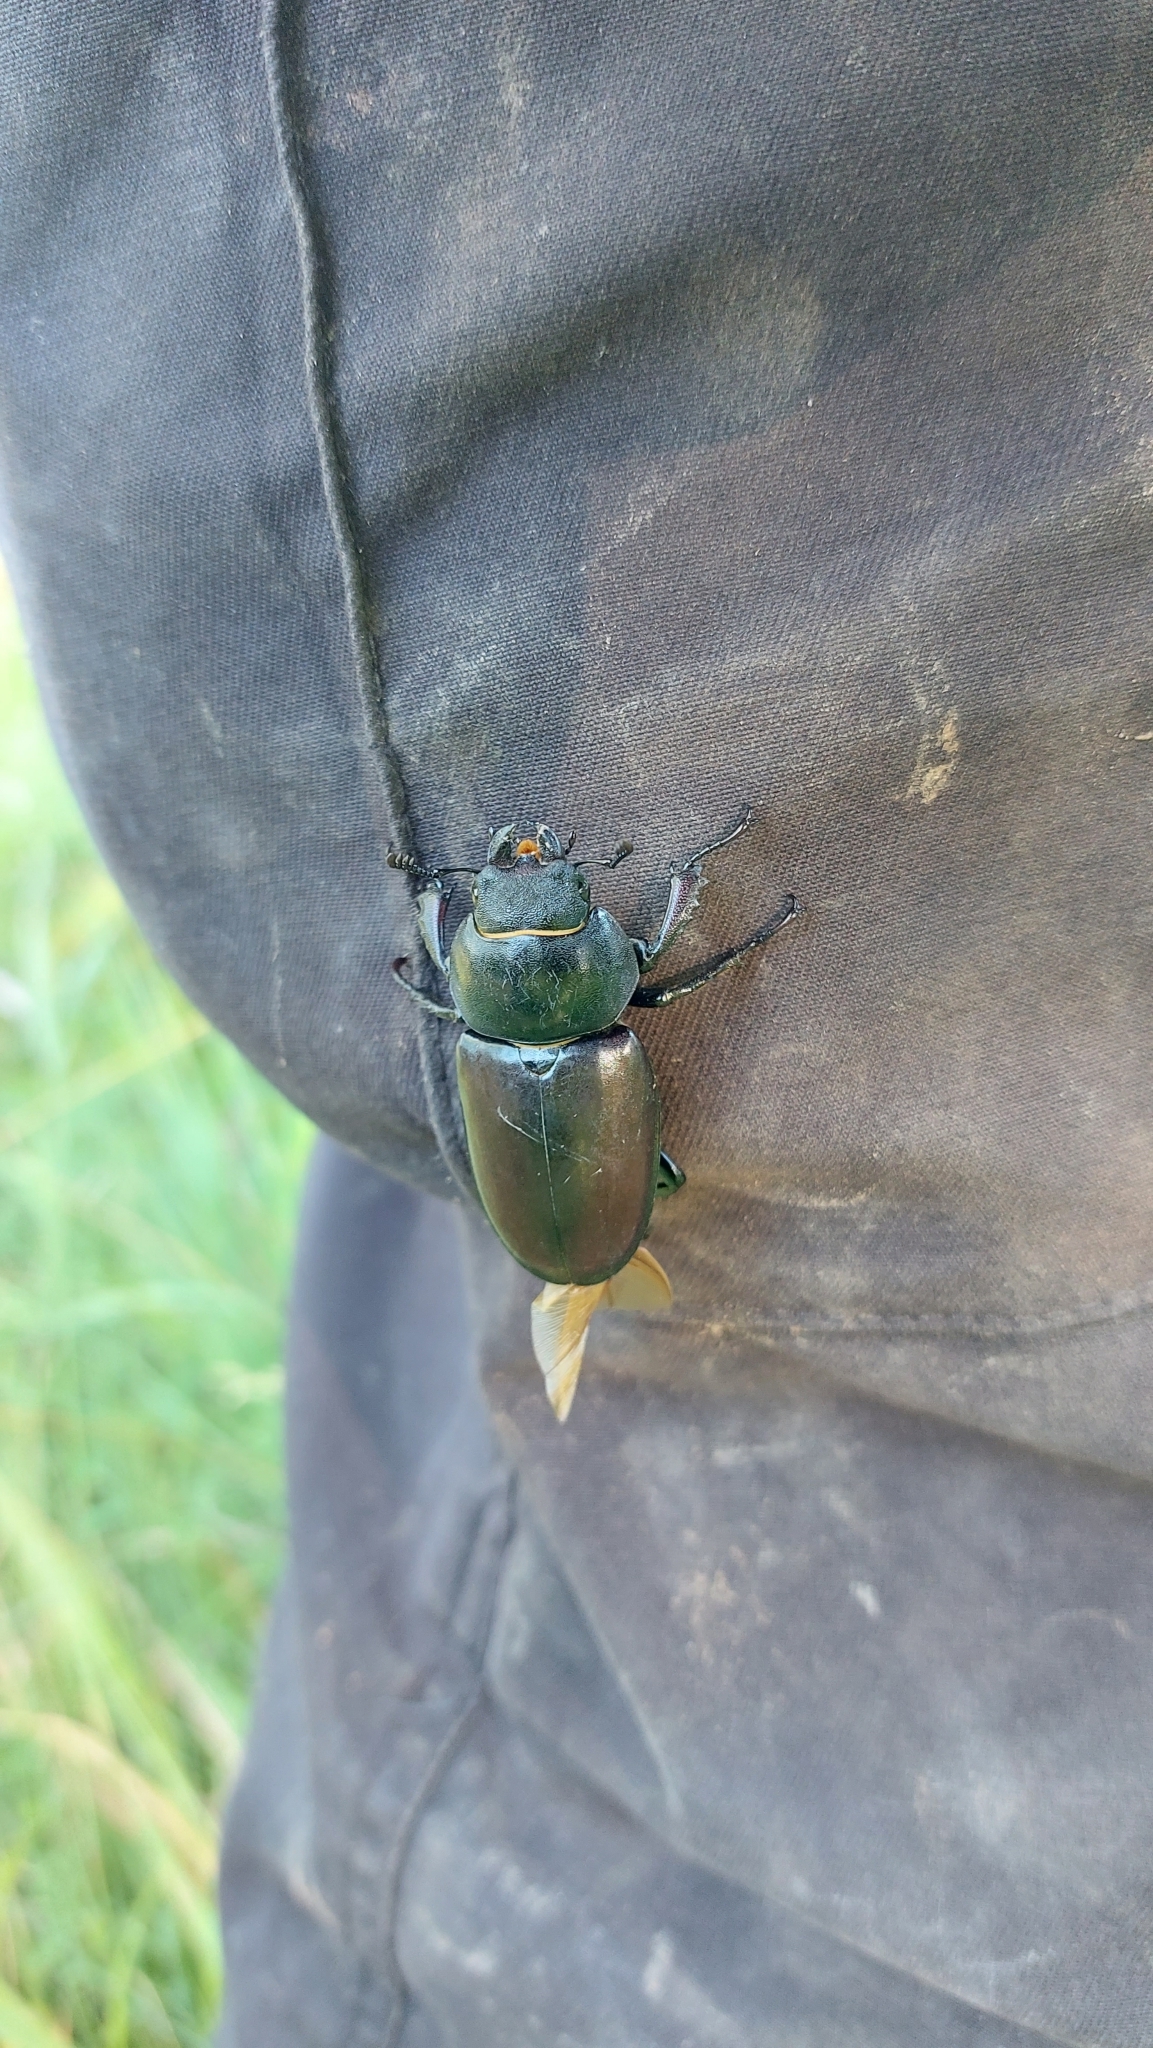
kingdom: Animalia
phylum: Arthropoda
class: Insecta
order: Coleoptera
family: Lucanidae
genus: Lucanus
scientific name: Lucanus cervus
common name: Stag beetle
